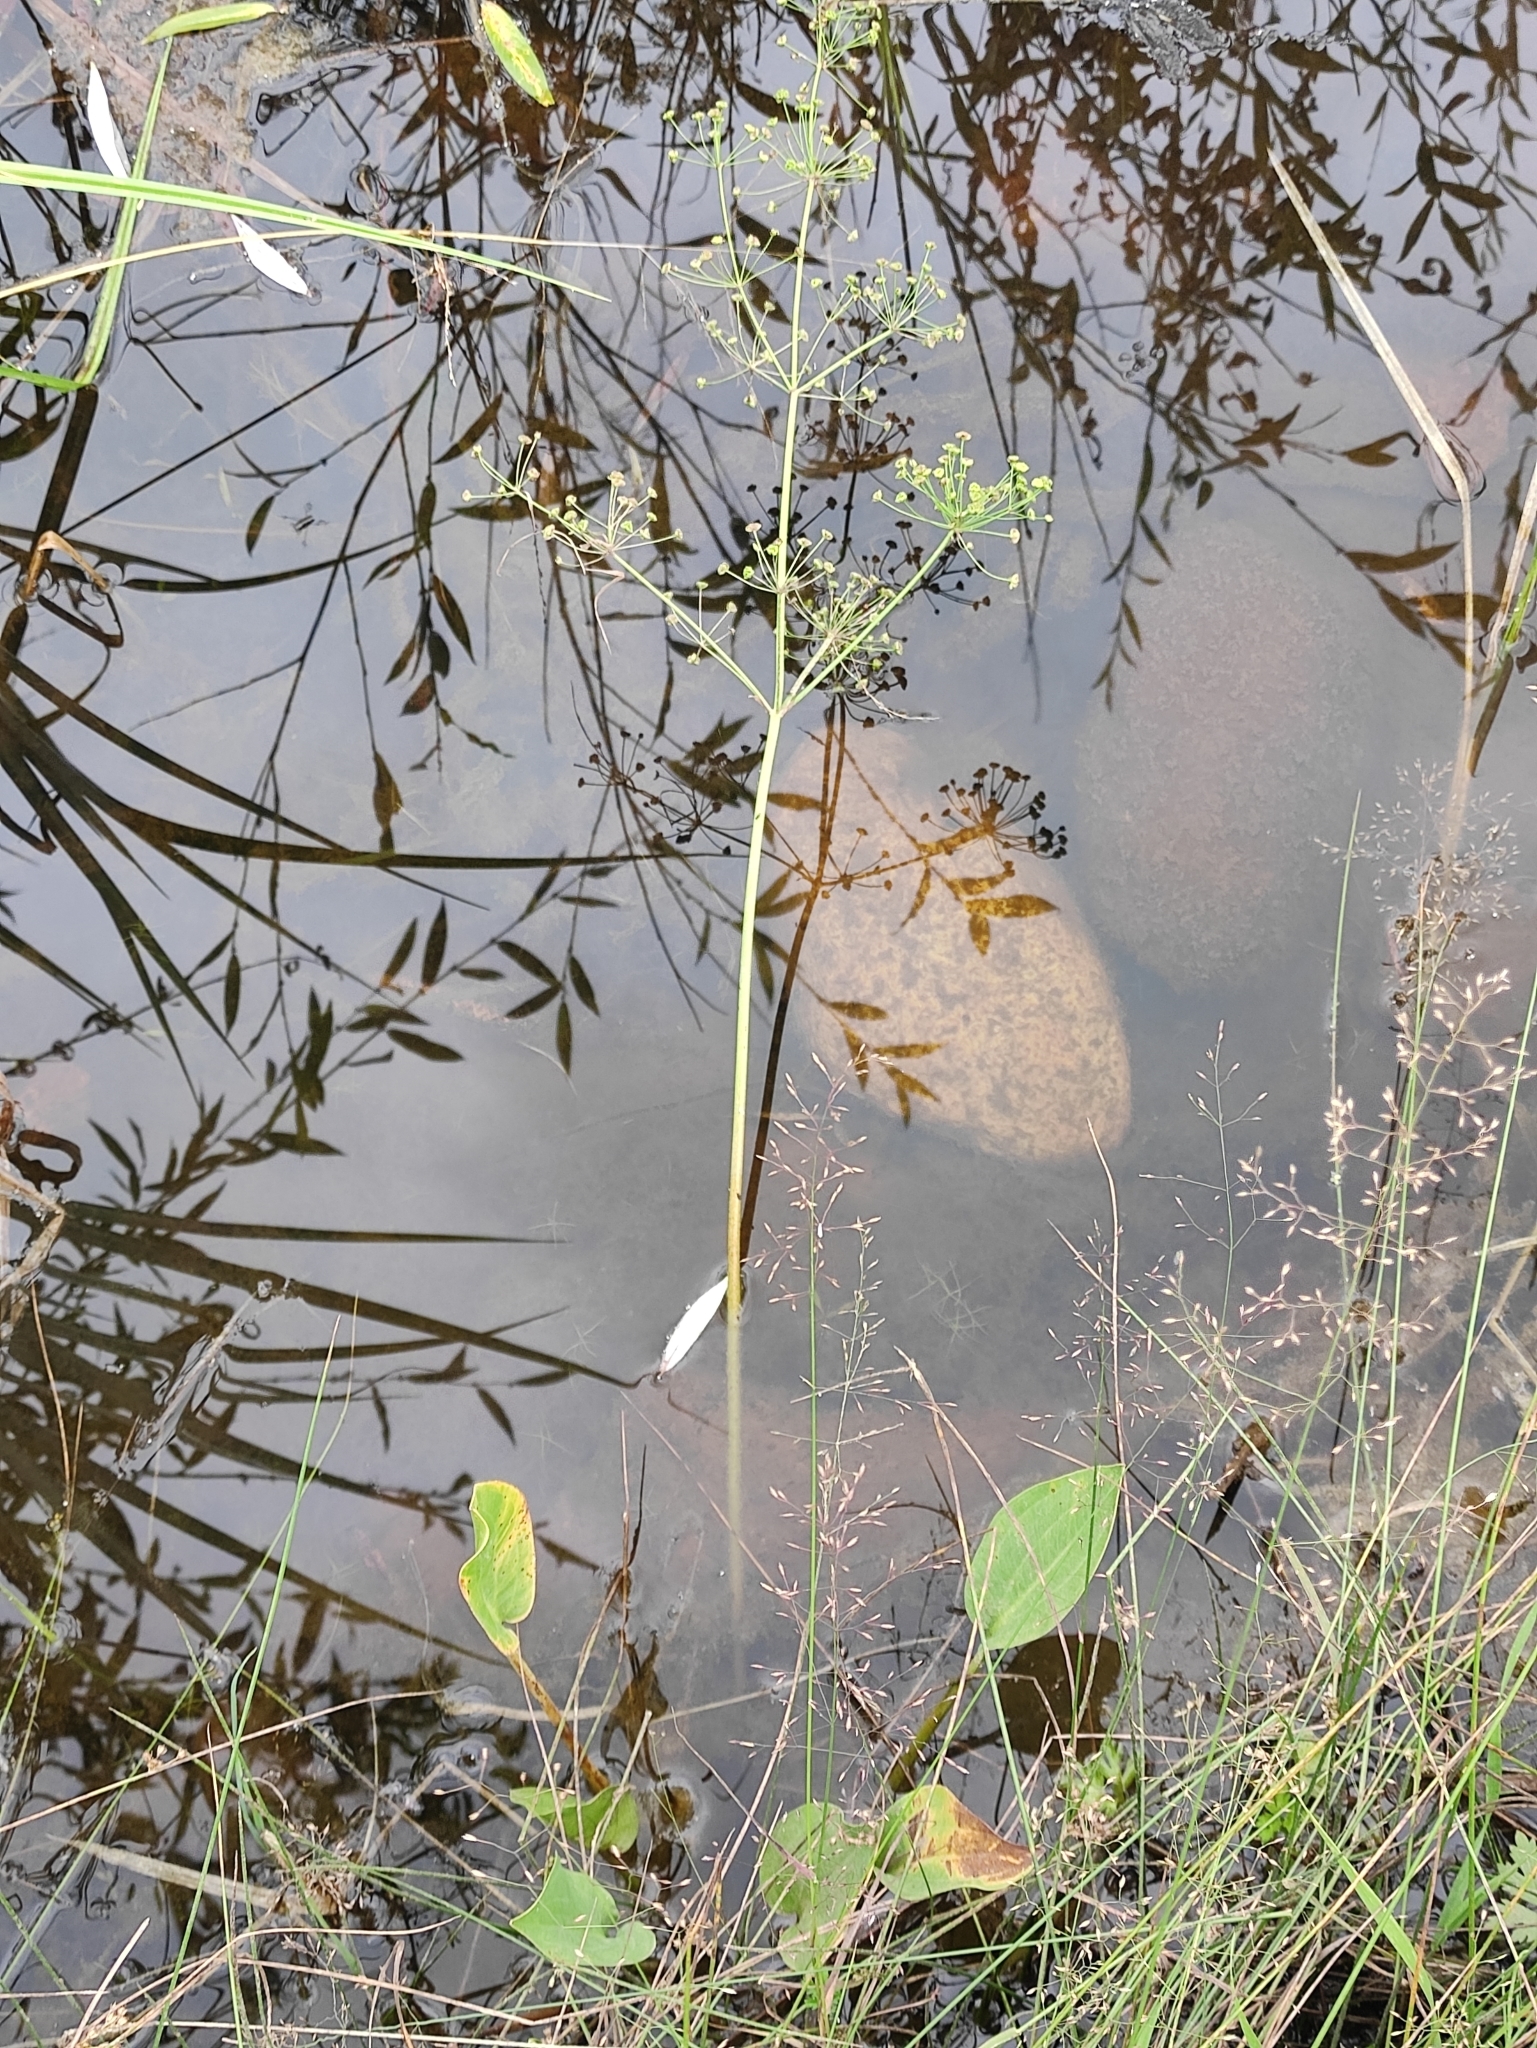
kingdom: Plantae
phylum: Tracheophyta
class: Liliopsida
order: Alismatales
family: Alismataceae
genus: Alisma
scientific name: Alisma plantago-aquatica
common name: Water-plantain
